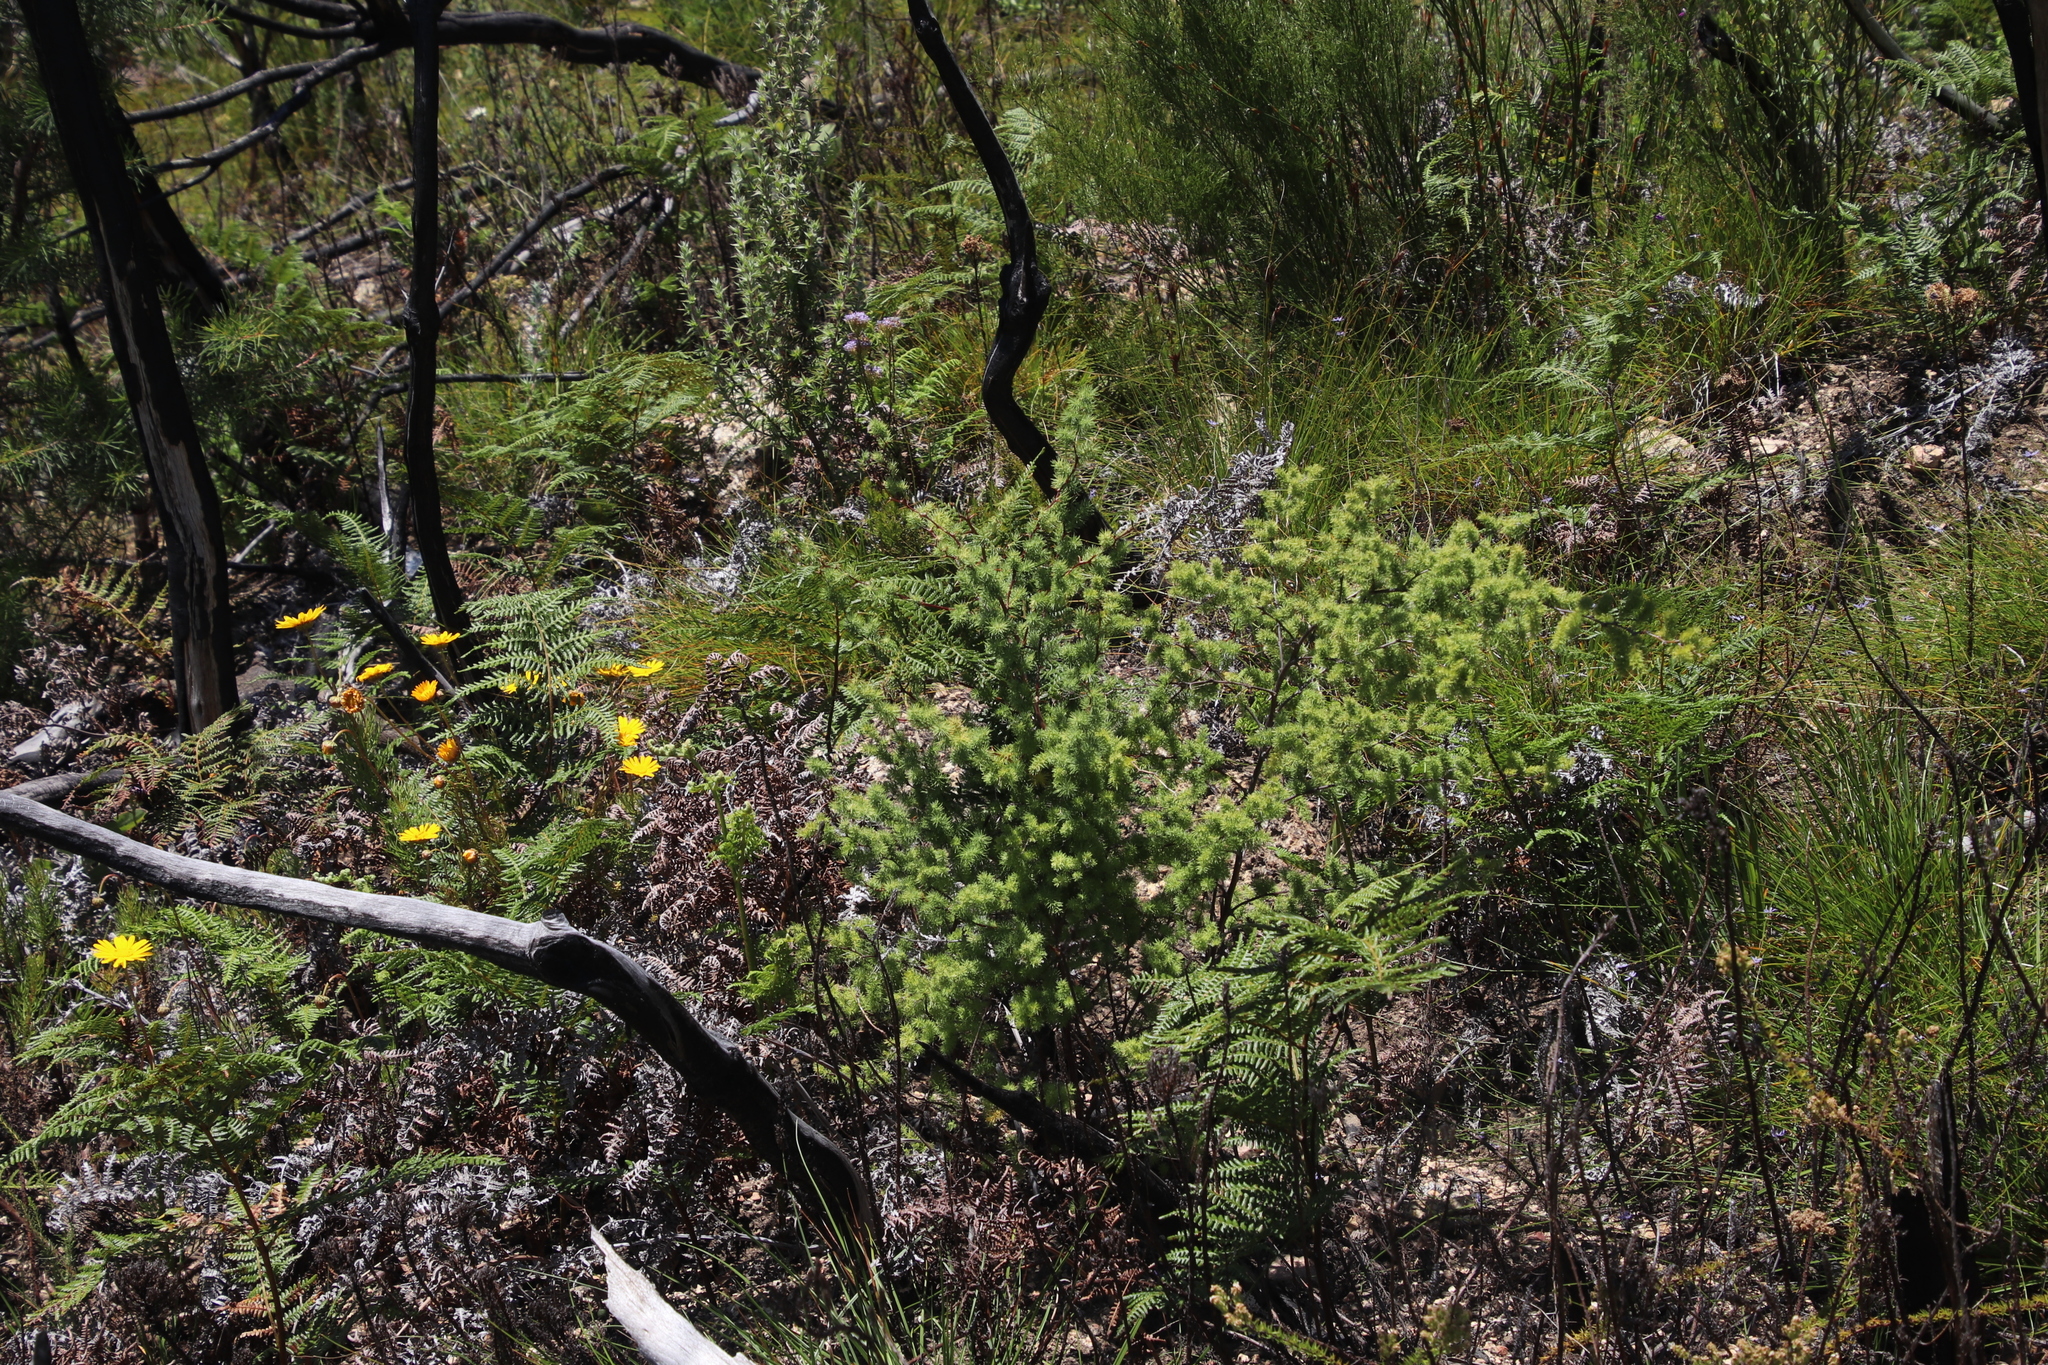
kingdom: Plantae
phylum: Tracheophyta
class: Liliopsida
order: Asparagales
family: Asparagaceae
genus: Asparagus
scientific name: Asparagus rubicundus
